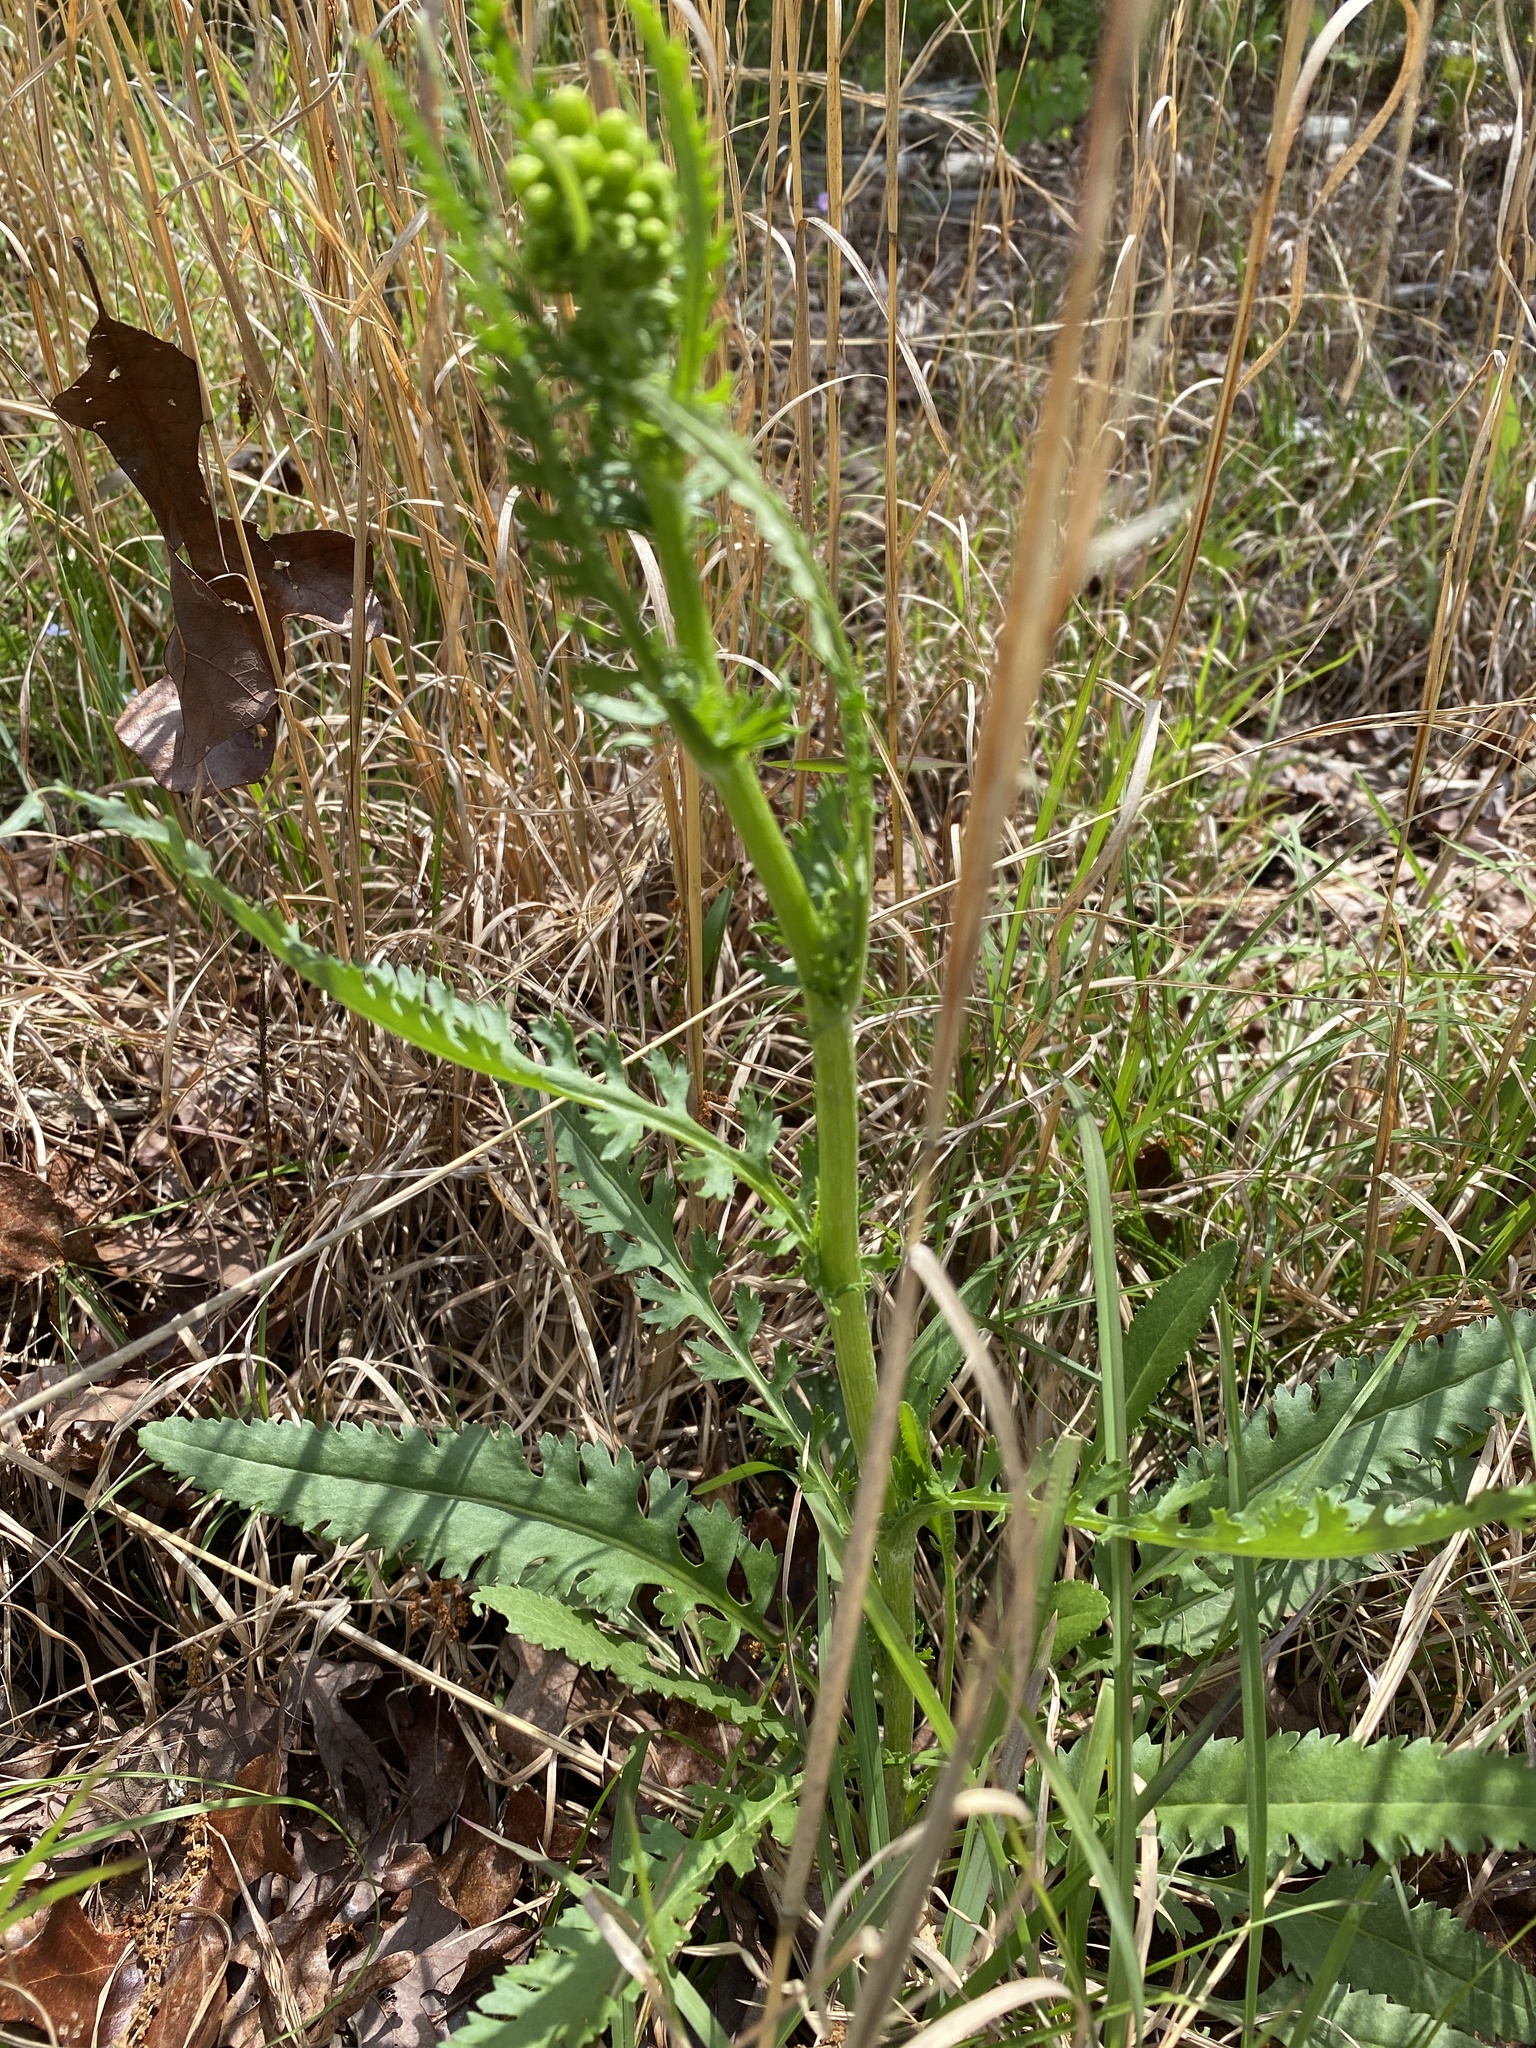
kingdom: Plantae
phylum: Tracheophyta
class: Magnoliopsida
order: Asterales
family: Asteraceae
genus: Packera
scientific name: Packera anonyma
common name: Small ragwort
